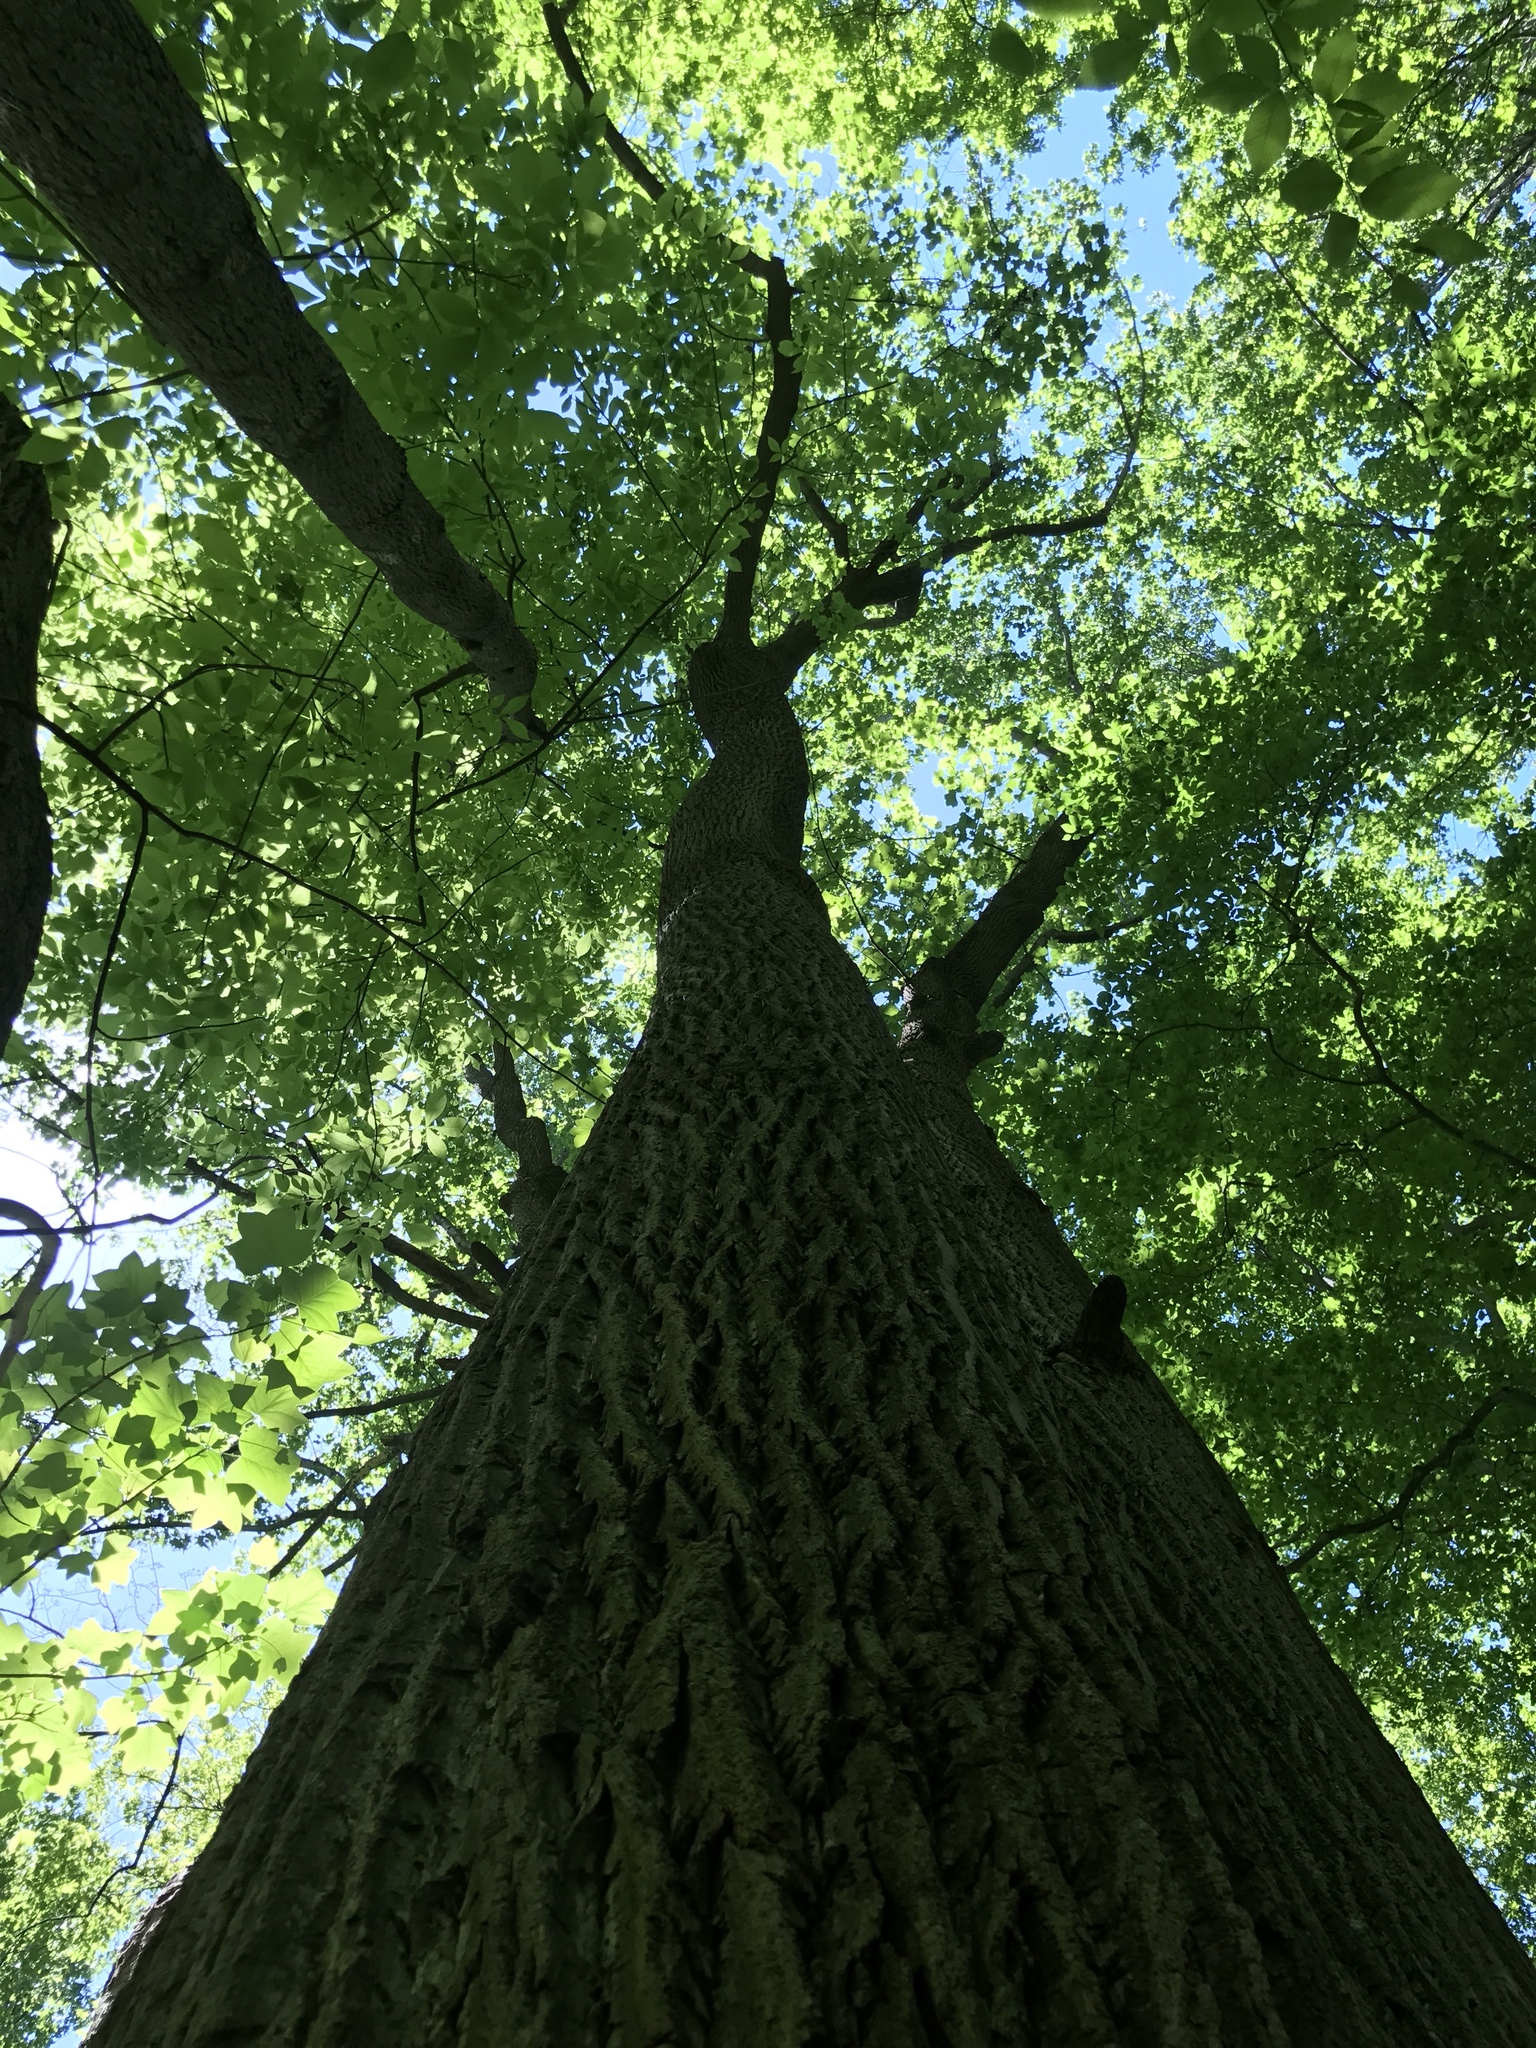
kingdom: Plantae
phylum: Tracheophyta
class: Magnoliopsida
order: Magnoliales
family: Magnoliaceae
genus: Liriodendron
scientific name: Liriodendron tulipifera
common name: Tulip tree
